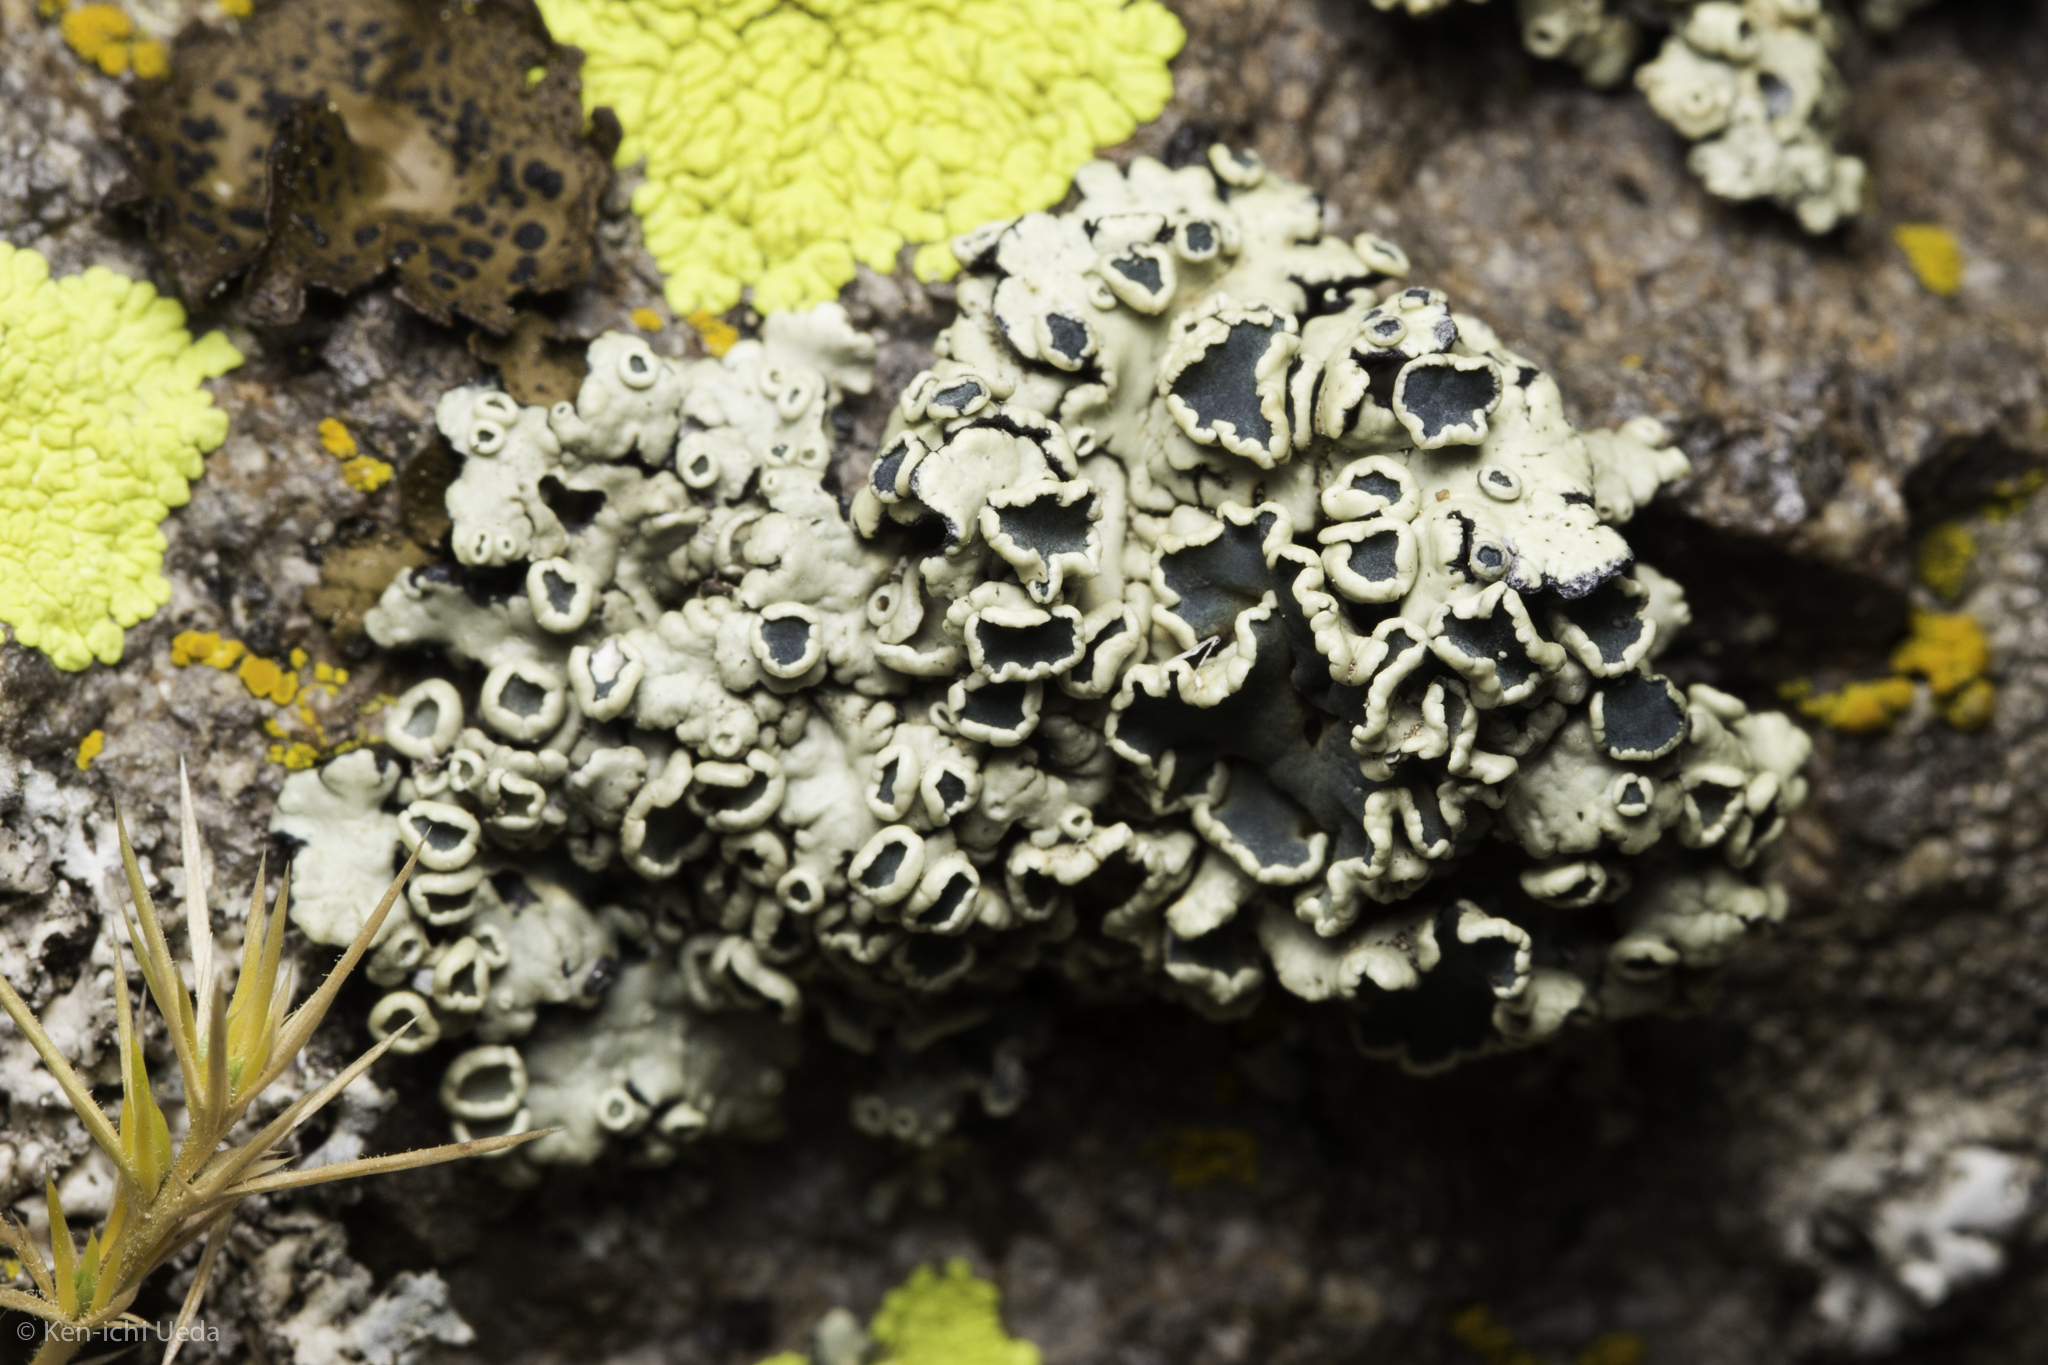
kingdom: Fungi
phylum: Ascomycota
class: Lecanoromycetes
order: Lecanorales
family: Lecanoraceae
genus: Rhizoplaca
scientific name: Rhizoplaca melanophthalma
